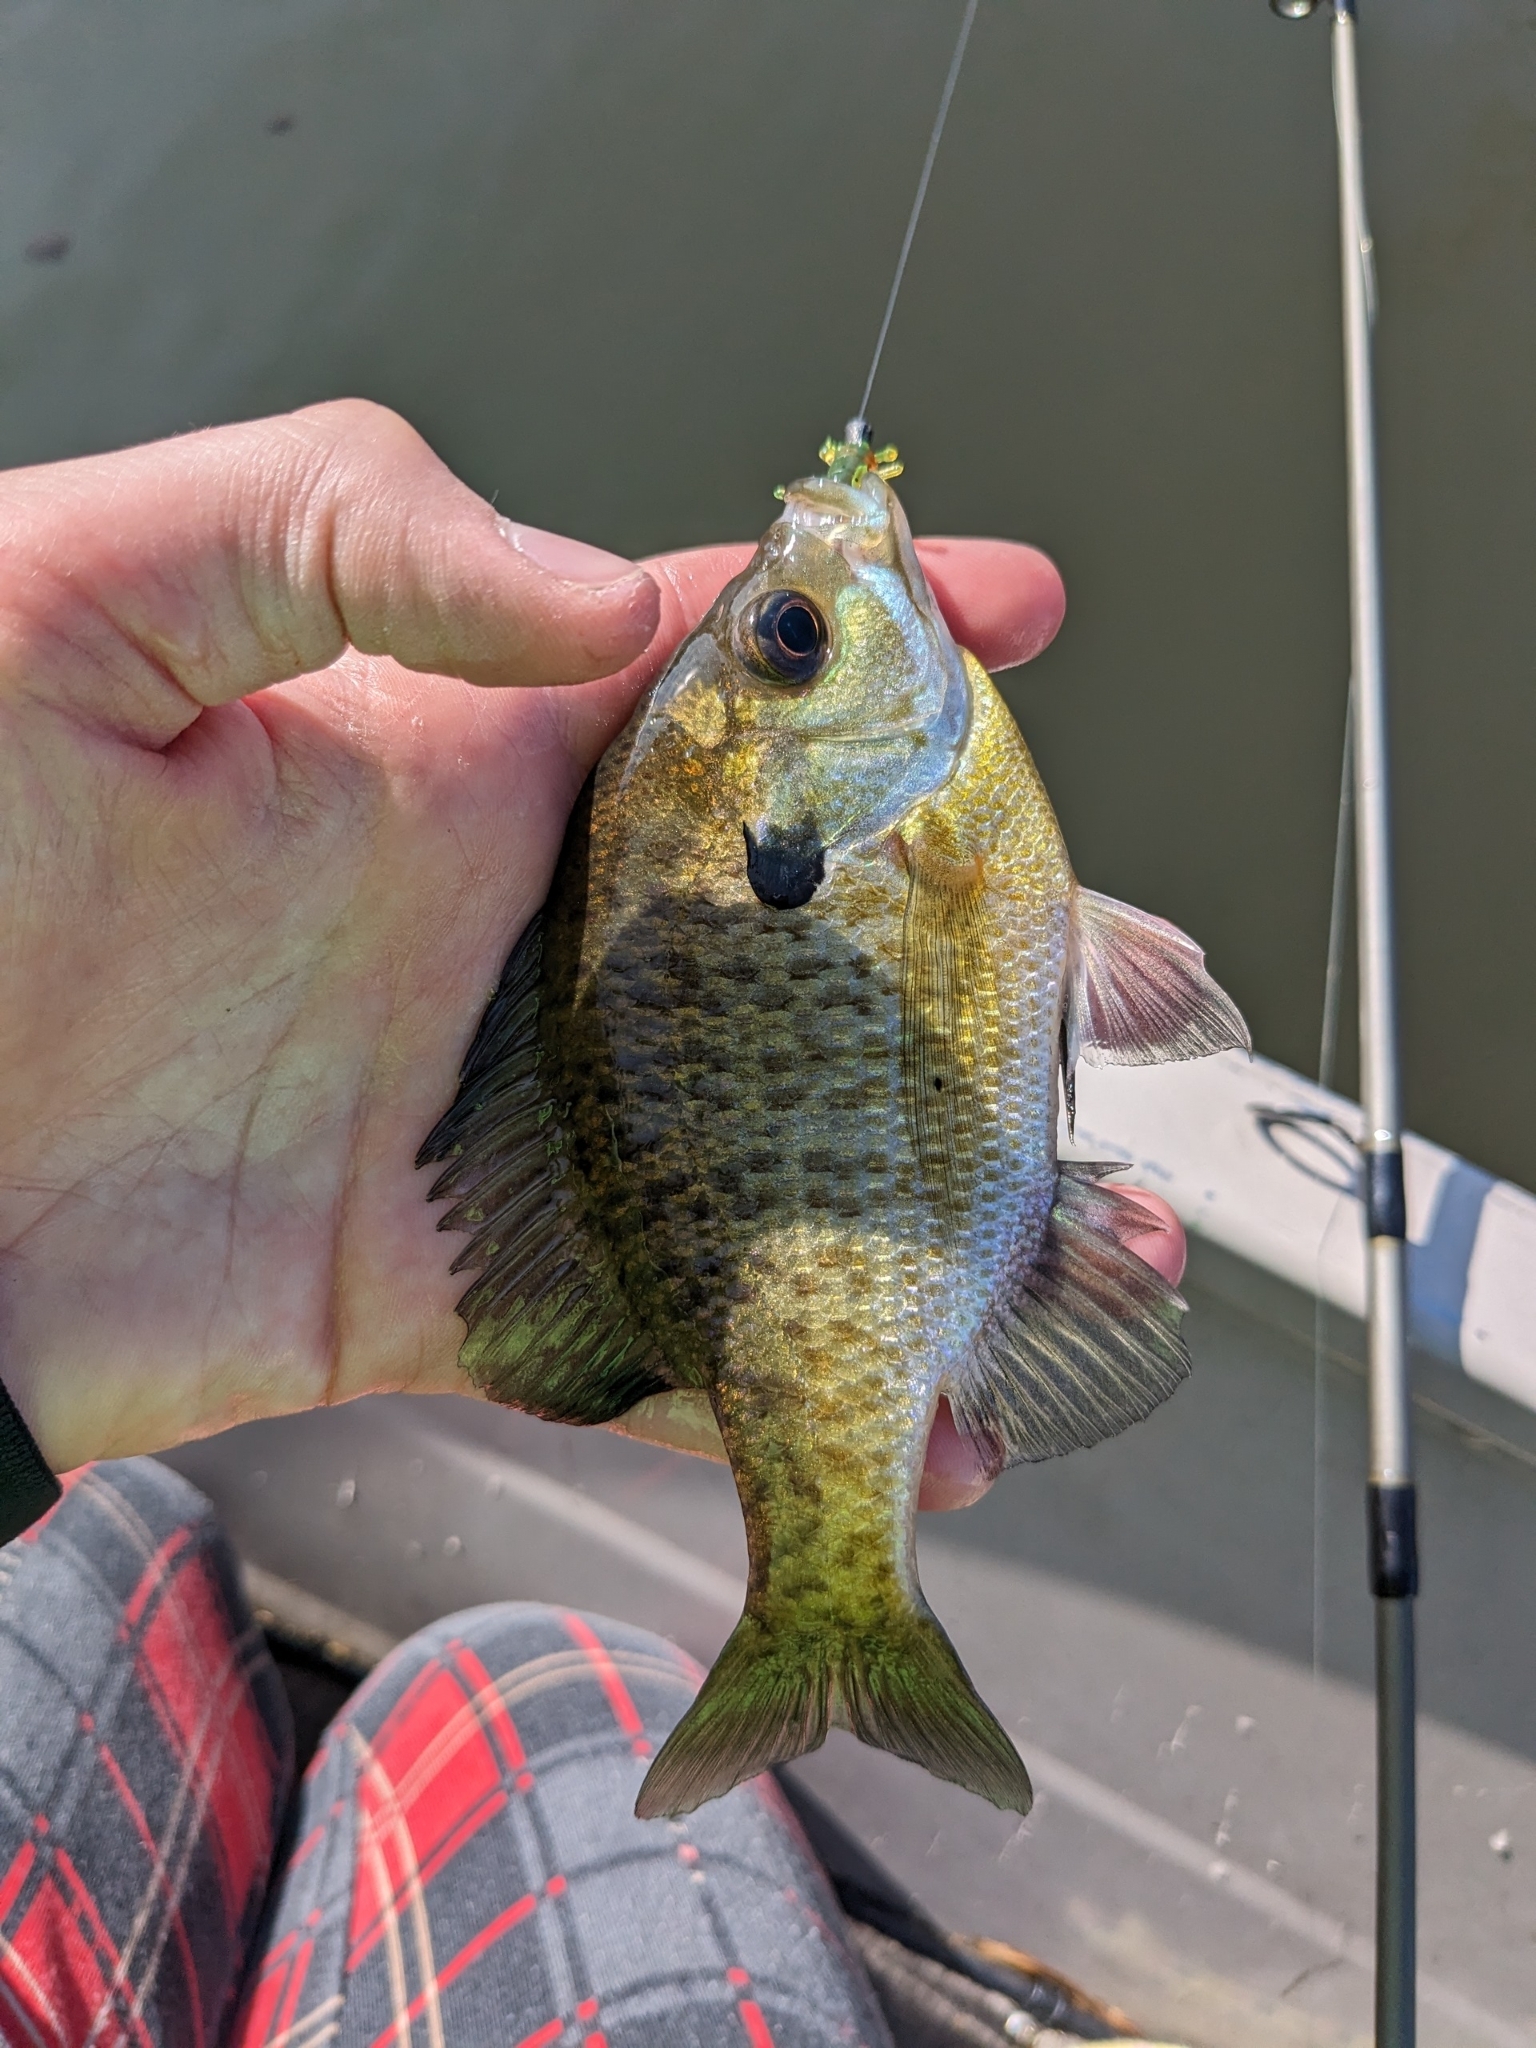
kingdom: Animalia
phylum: Chordata
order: Perciformes
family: Centrarchidae
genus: Lepomis
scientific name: Lepomis macrochirus
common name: Bluegill
